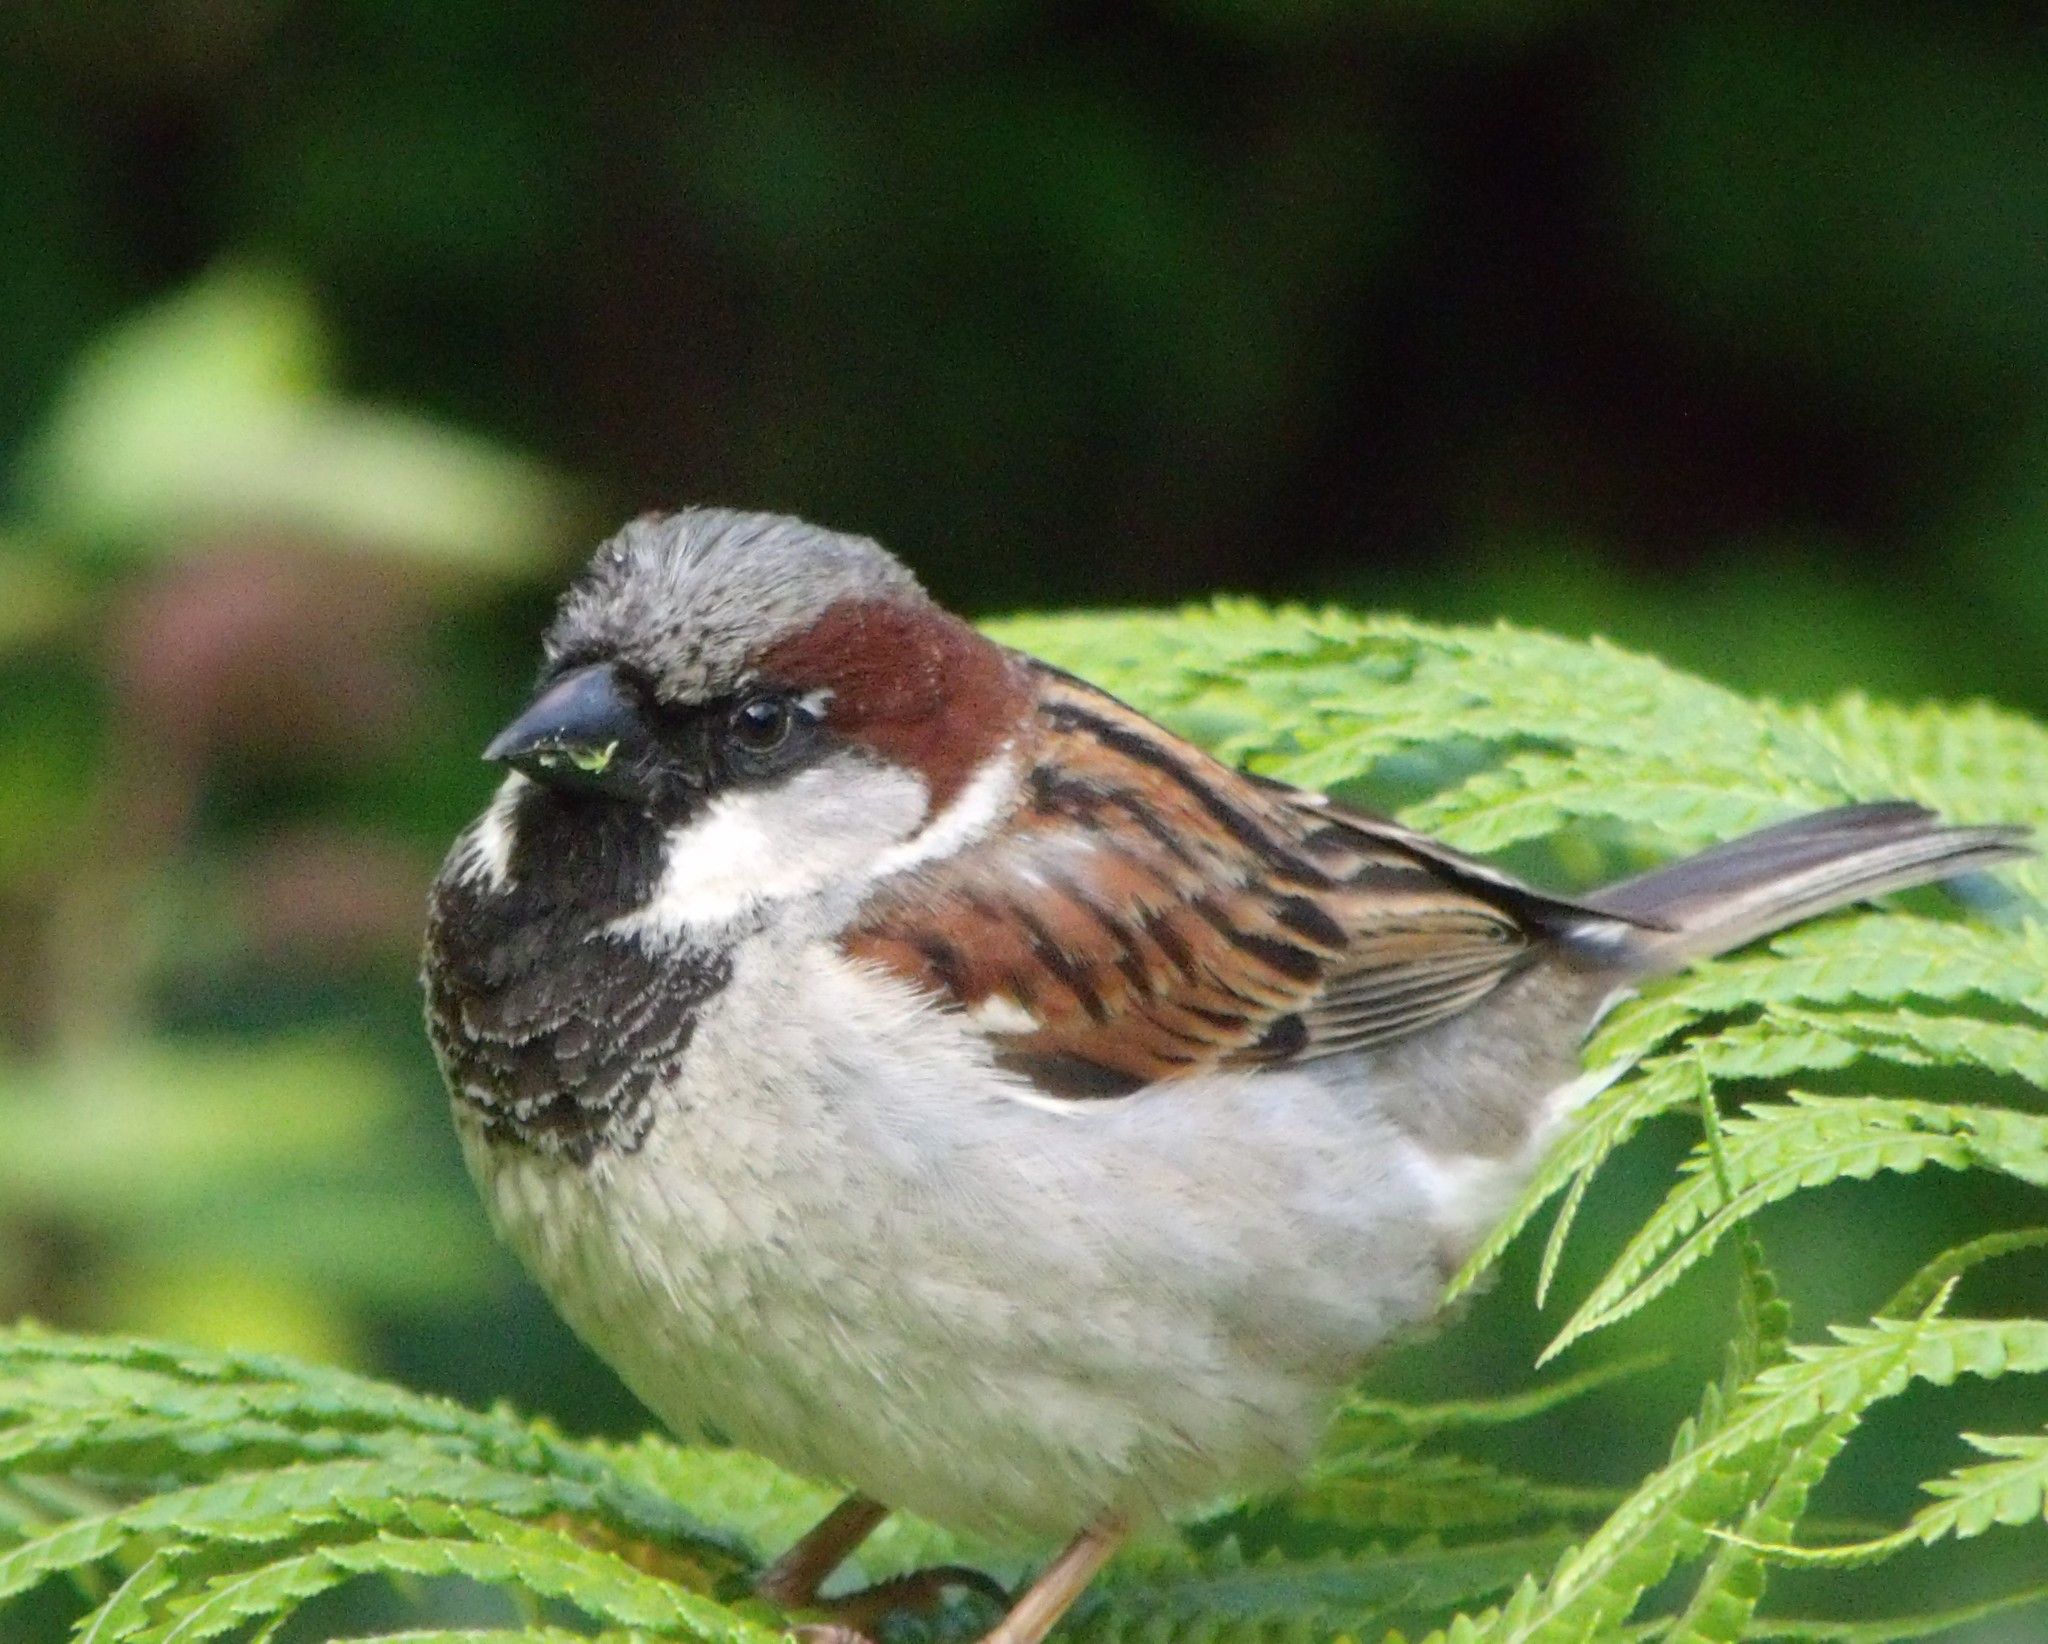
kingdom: Animalia
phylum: Chordata
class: Aves
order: Passeriformes
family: Passeridae
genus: Passer
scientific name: Passer domesticus
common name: House sparrow
